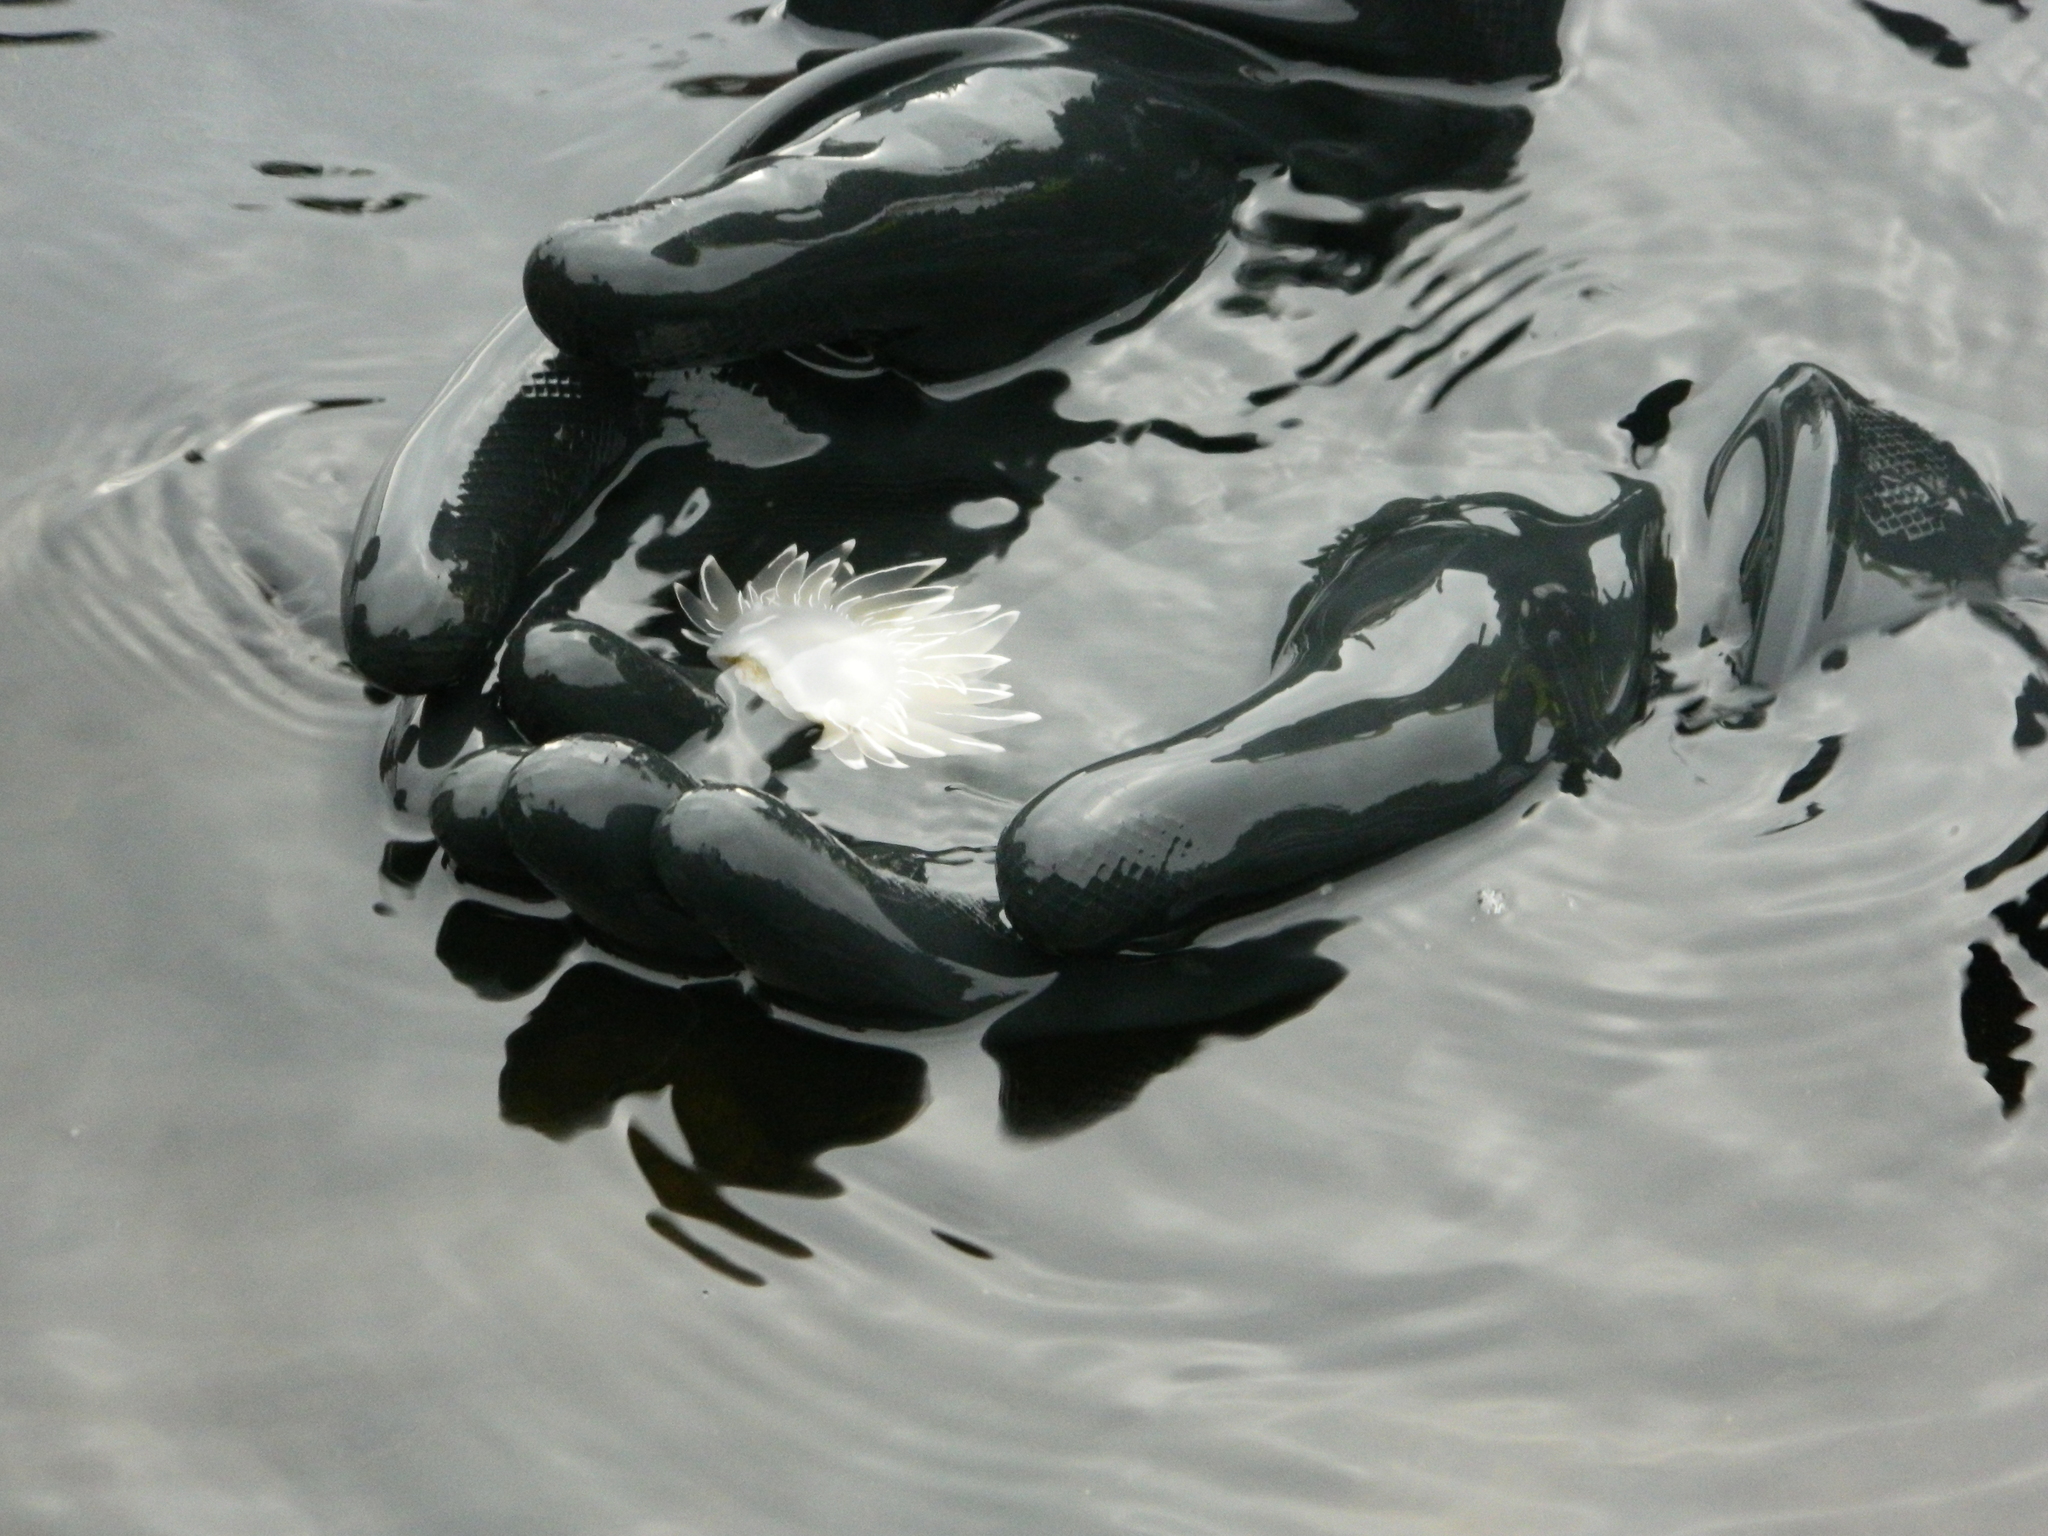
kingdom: Animalia
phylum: Mollusca
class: Gastropoda
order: Nudibranchia
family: Dironidae
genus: Dirona
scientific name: Dirona albolineata
